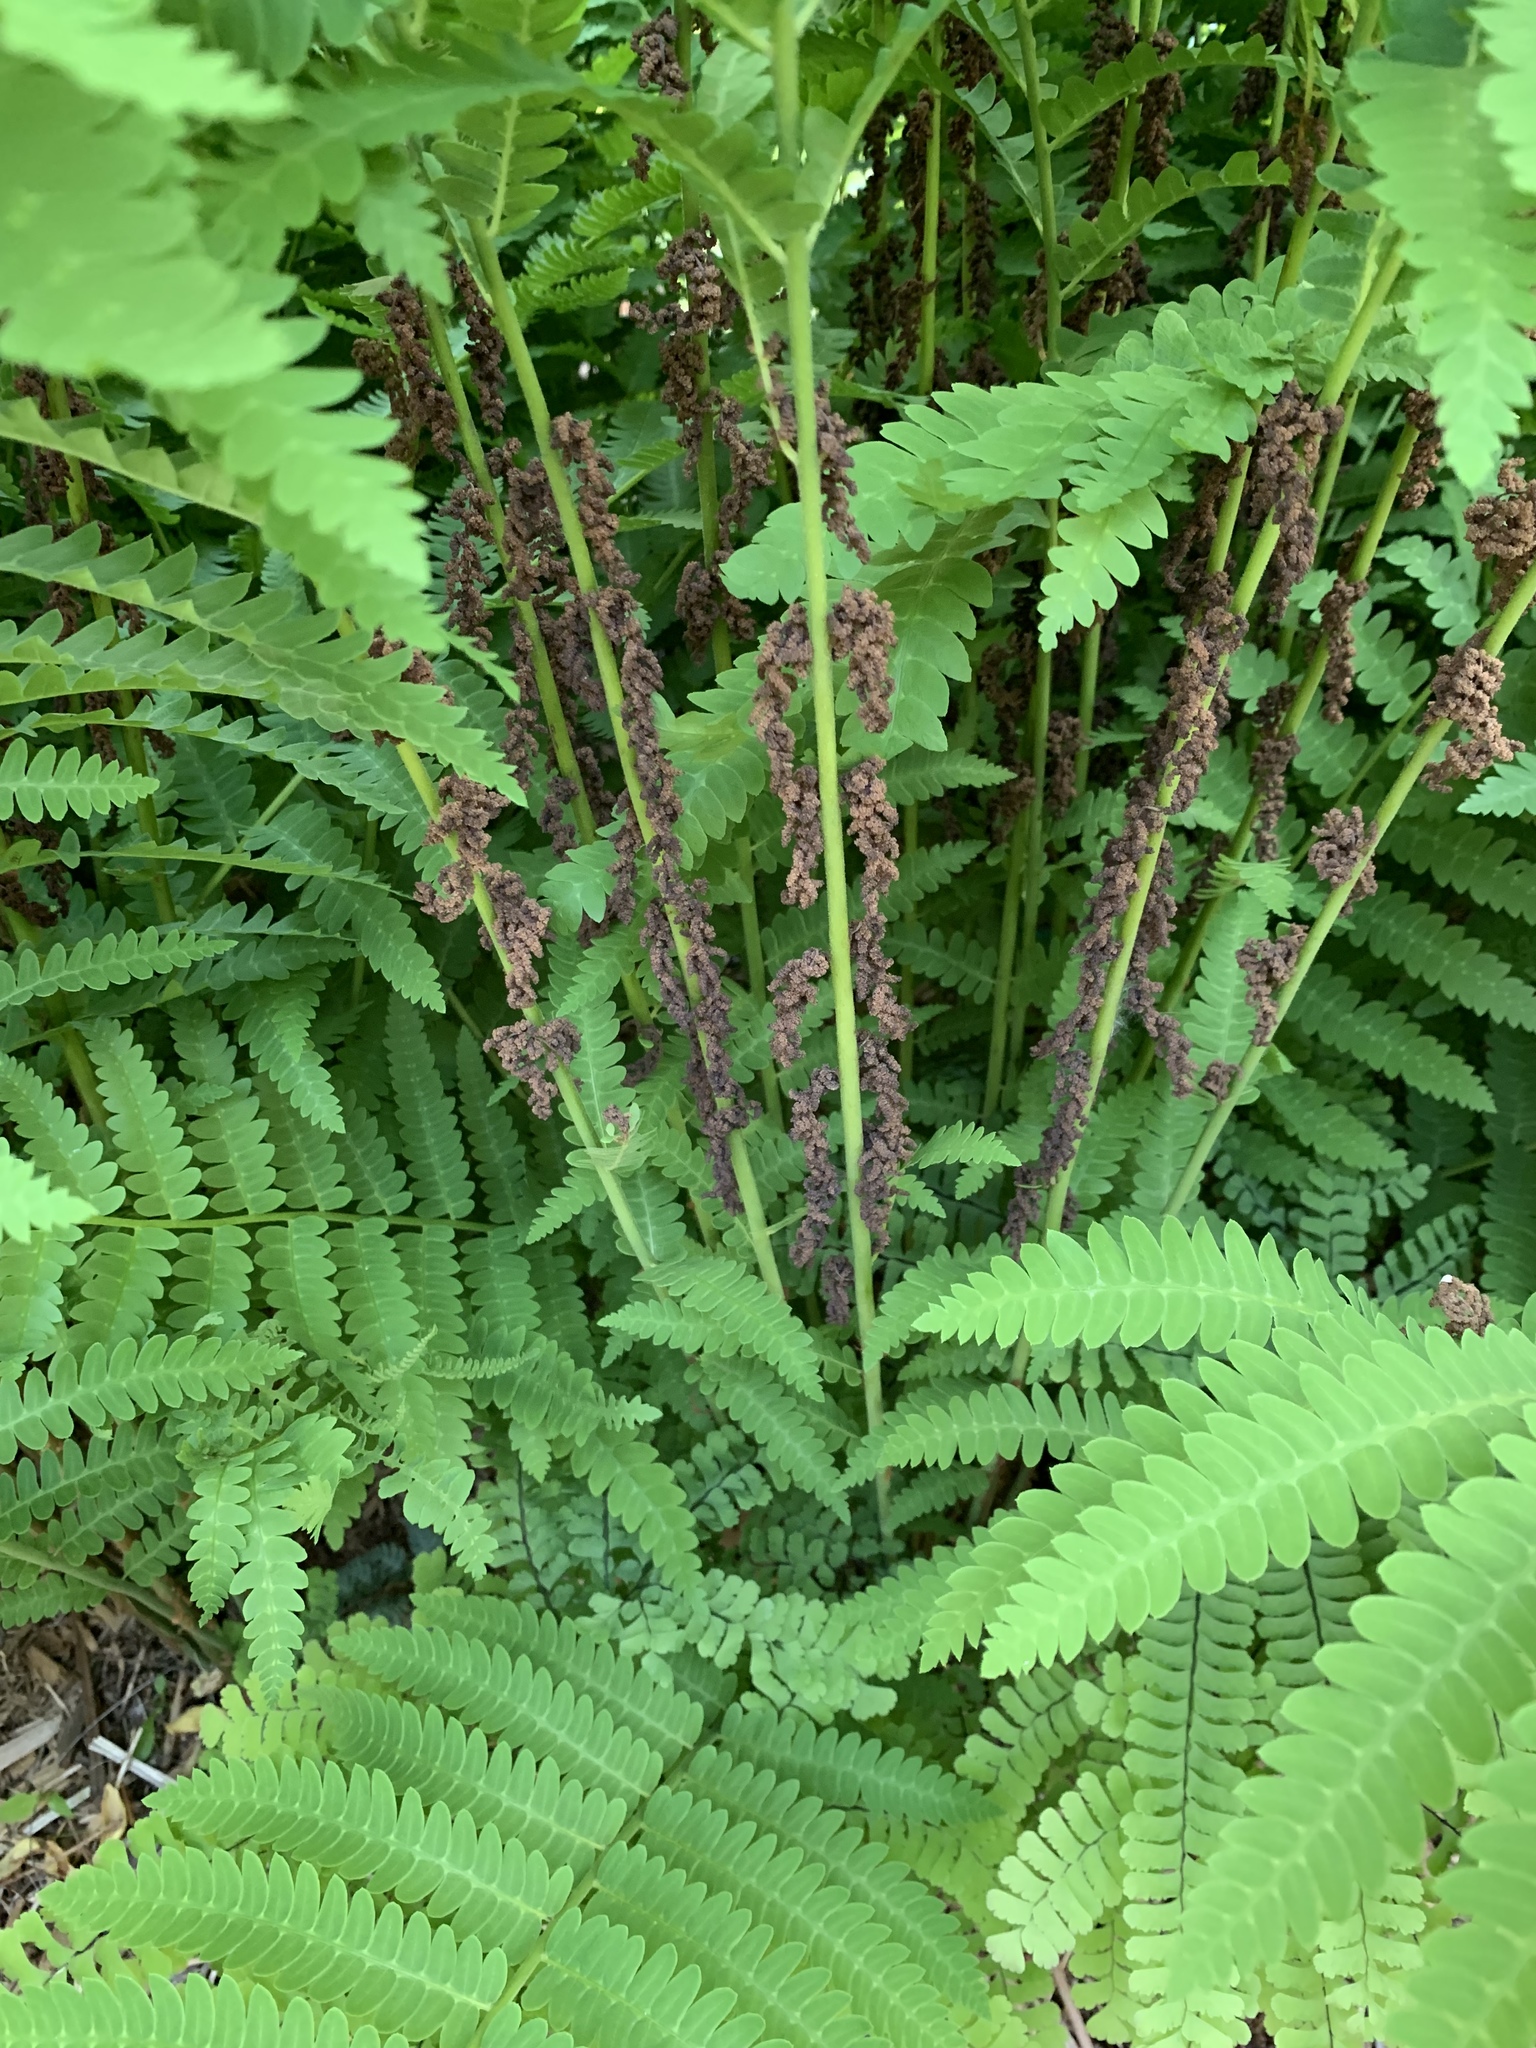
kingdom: Plantae
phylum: Tracheophyta
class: Polypodiopsida
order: Osmundales
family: Osmundaceae
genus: Claytosmunda
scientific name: Claytosmunda claytoniana
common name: Clayton's fern
